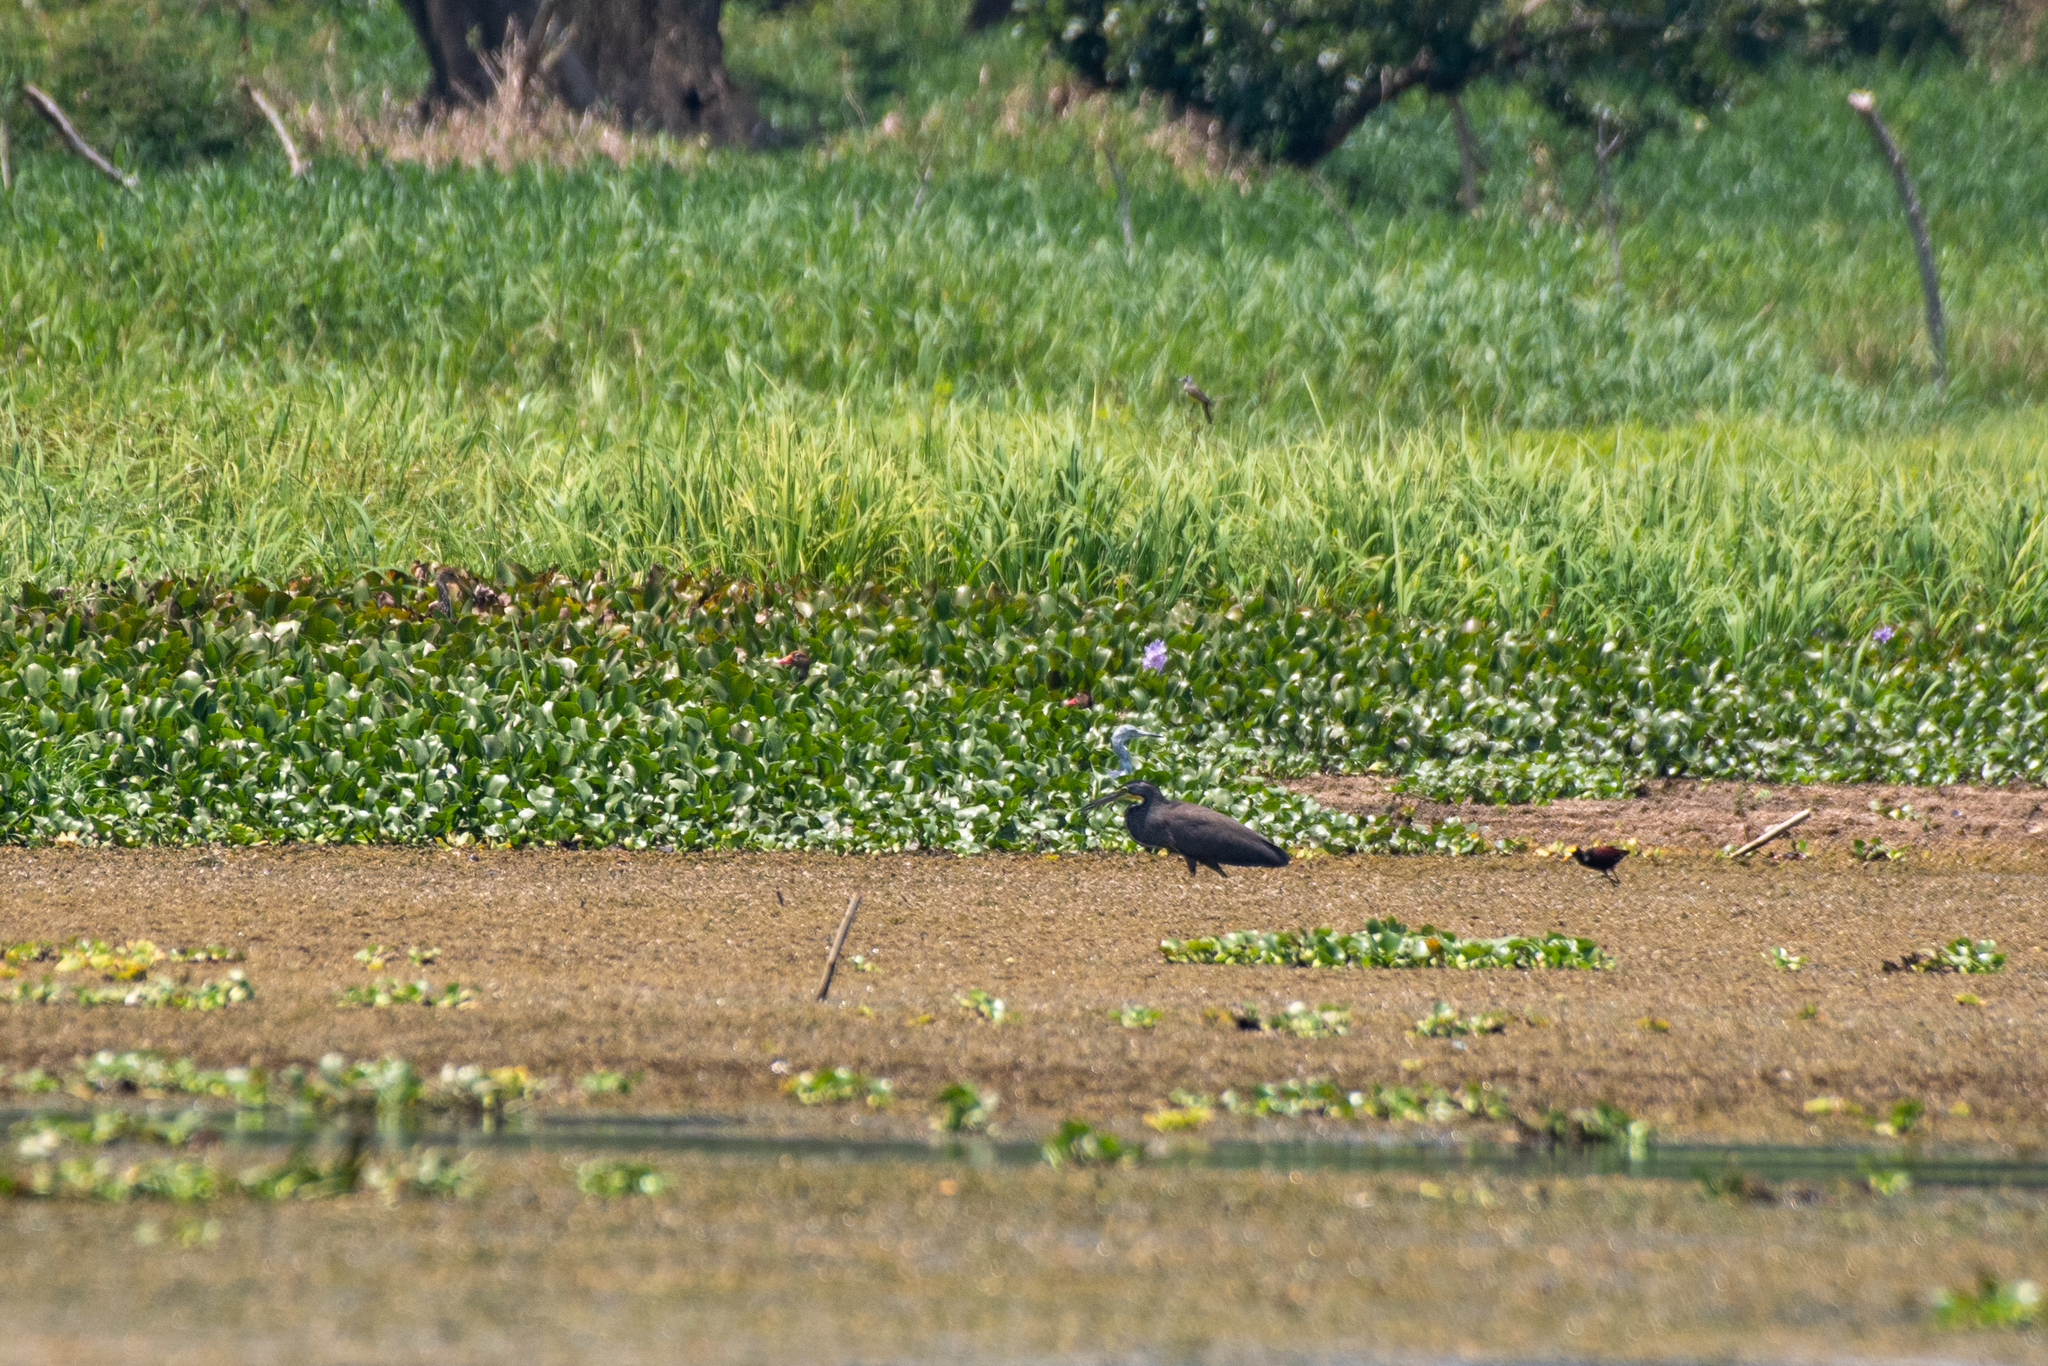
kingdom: Animalia
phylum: Chordata
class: Aves
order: Pelecaniformes
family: Ardeidae
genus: Tigrisoma
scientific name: Tigrisoma mexicanum
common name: Bare-throated tiger-heron
